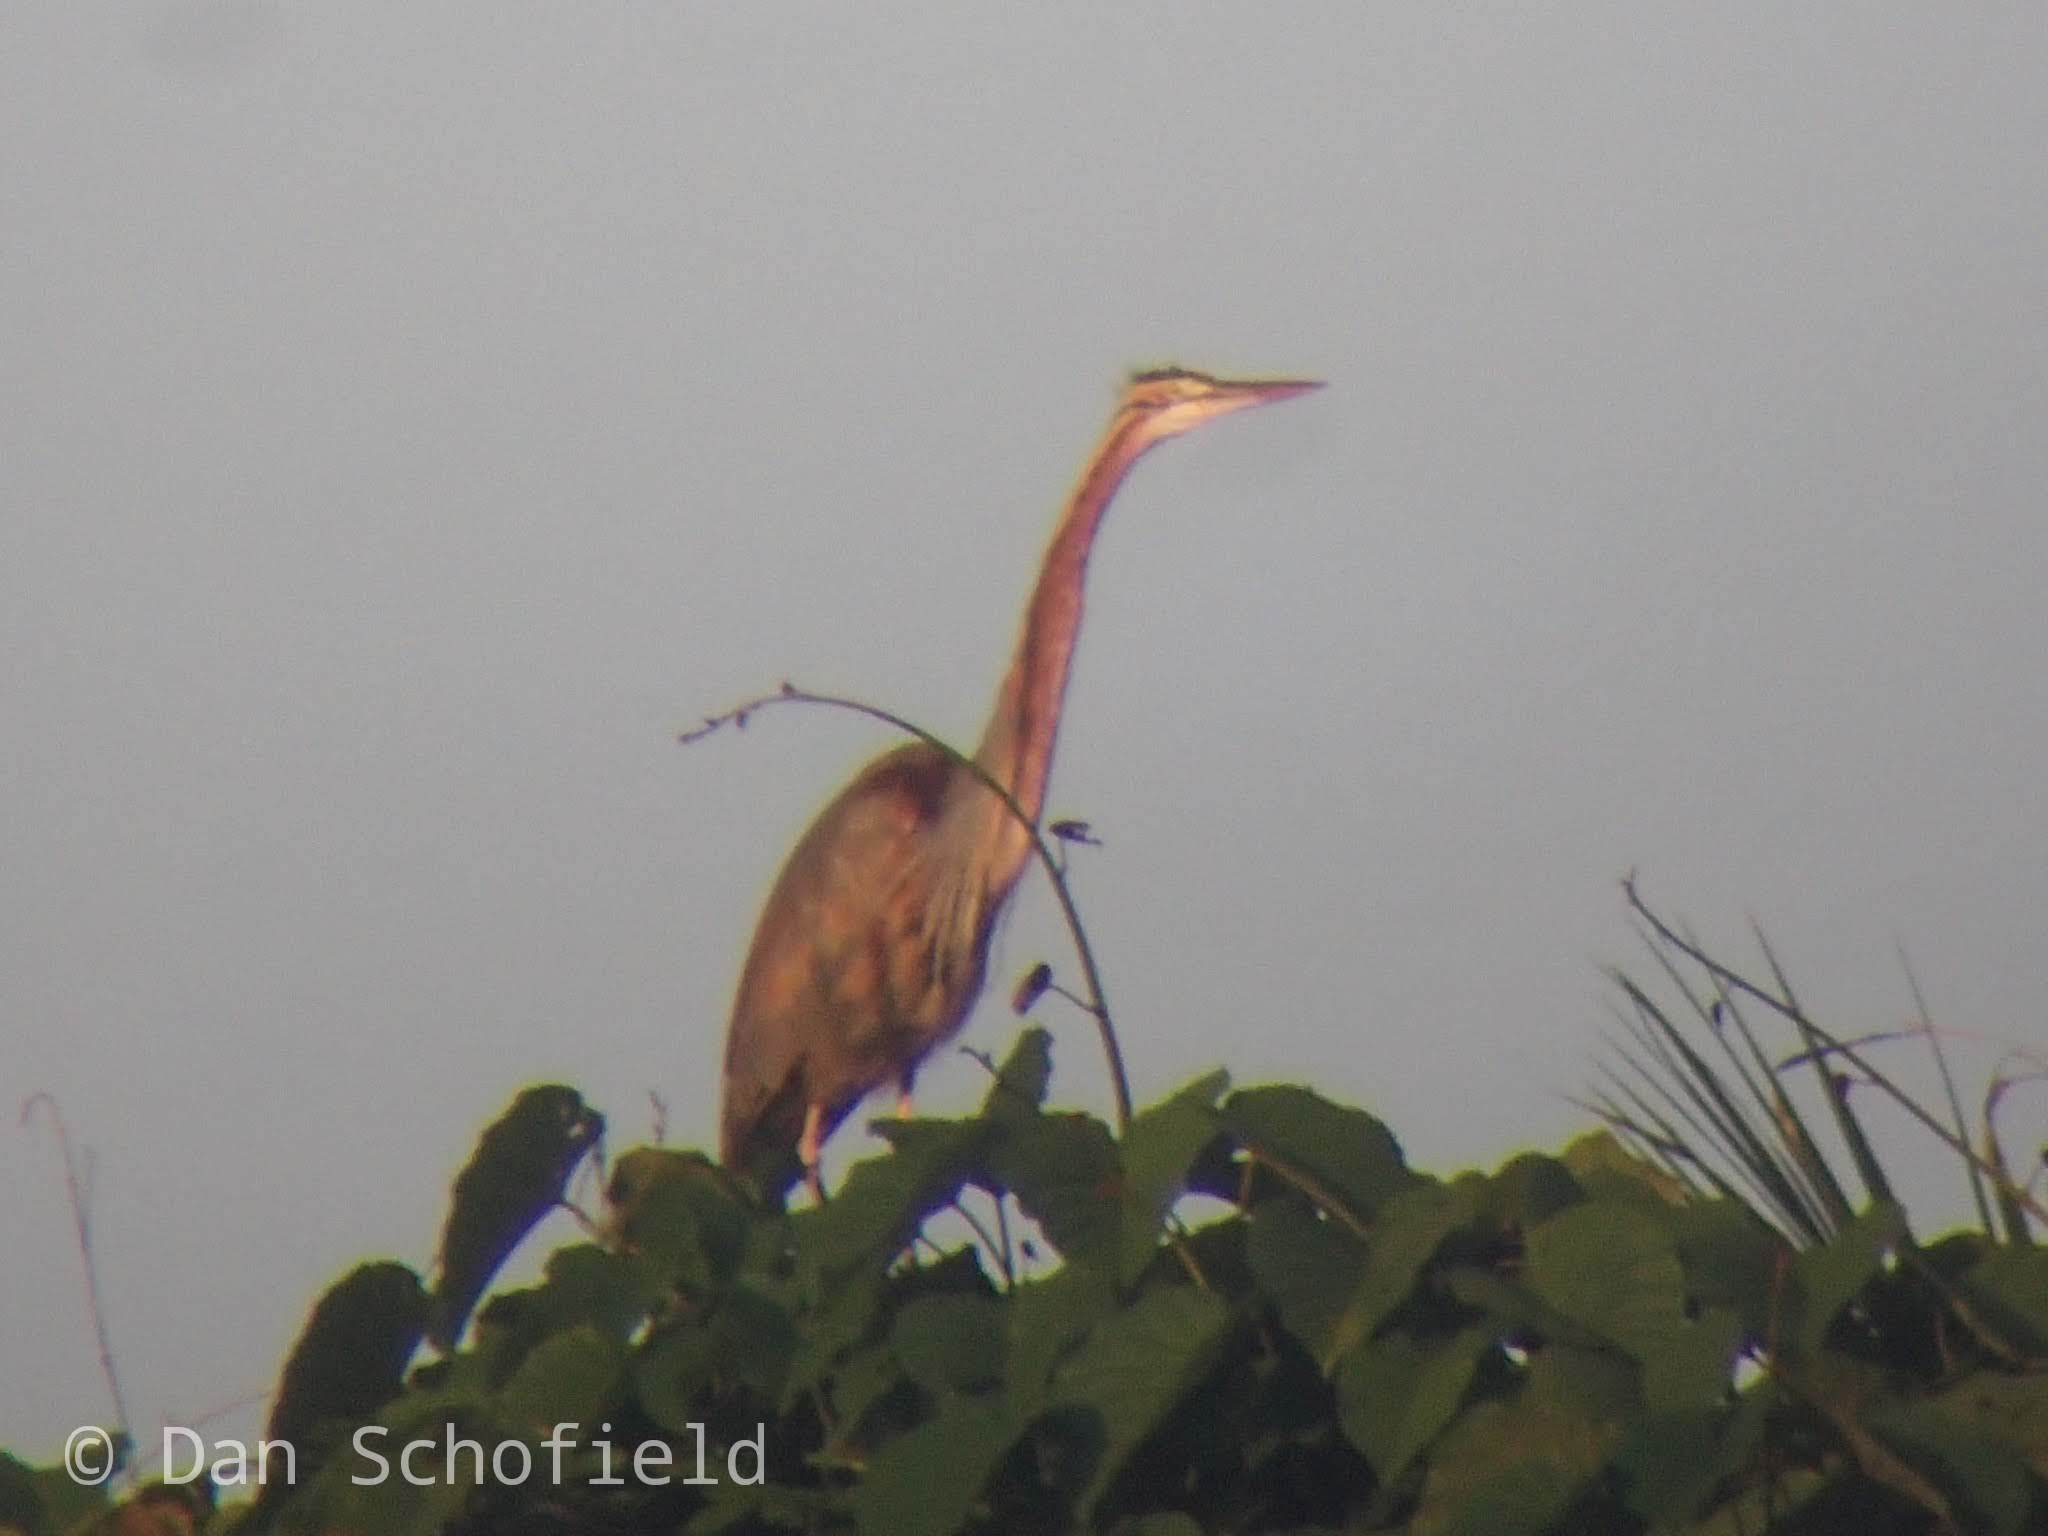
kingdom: Animalia
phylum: Chordata
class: Aves
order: Pelecaniformes
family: Ardeidae
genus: Ardea
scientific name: Ardea purpurea
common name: Purple heron
